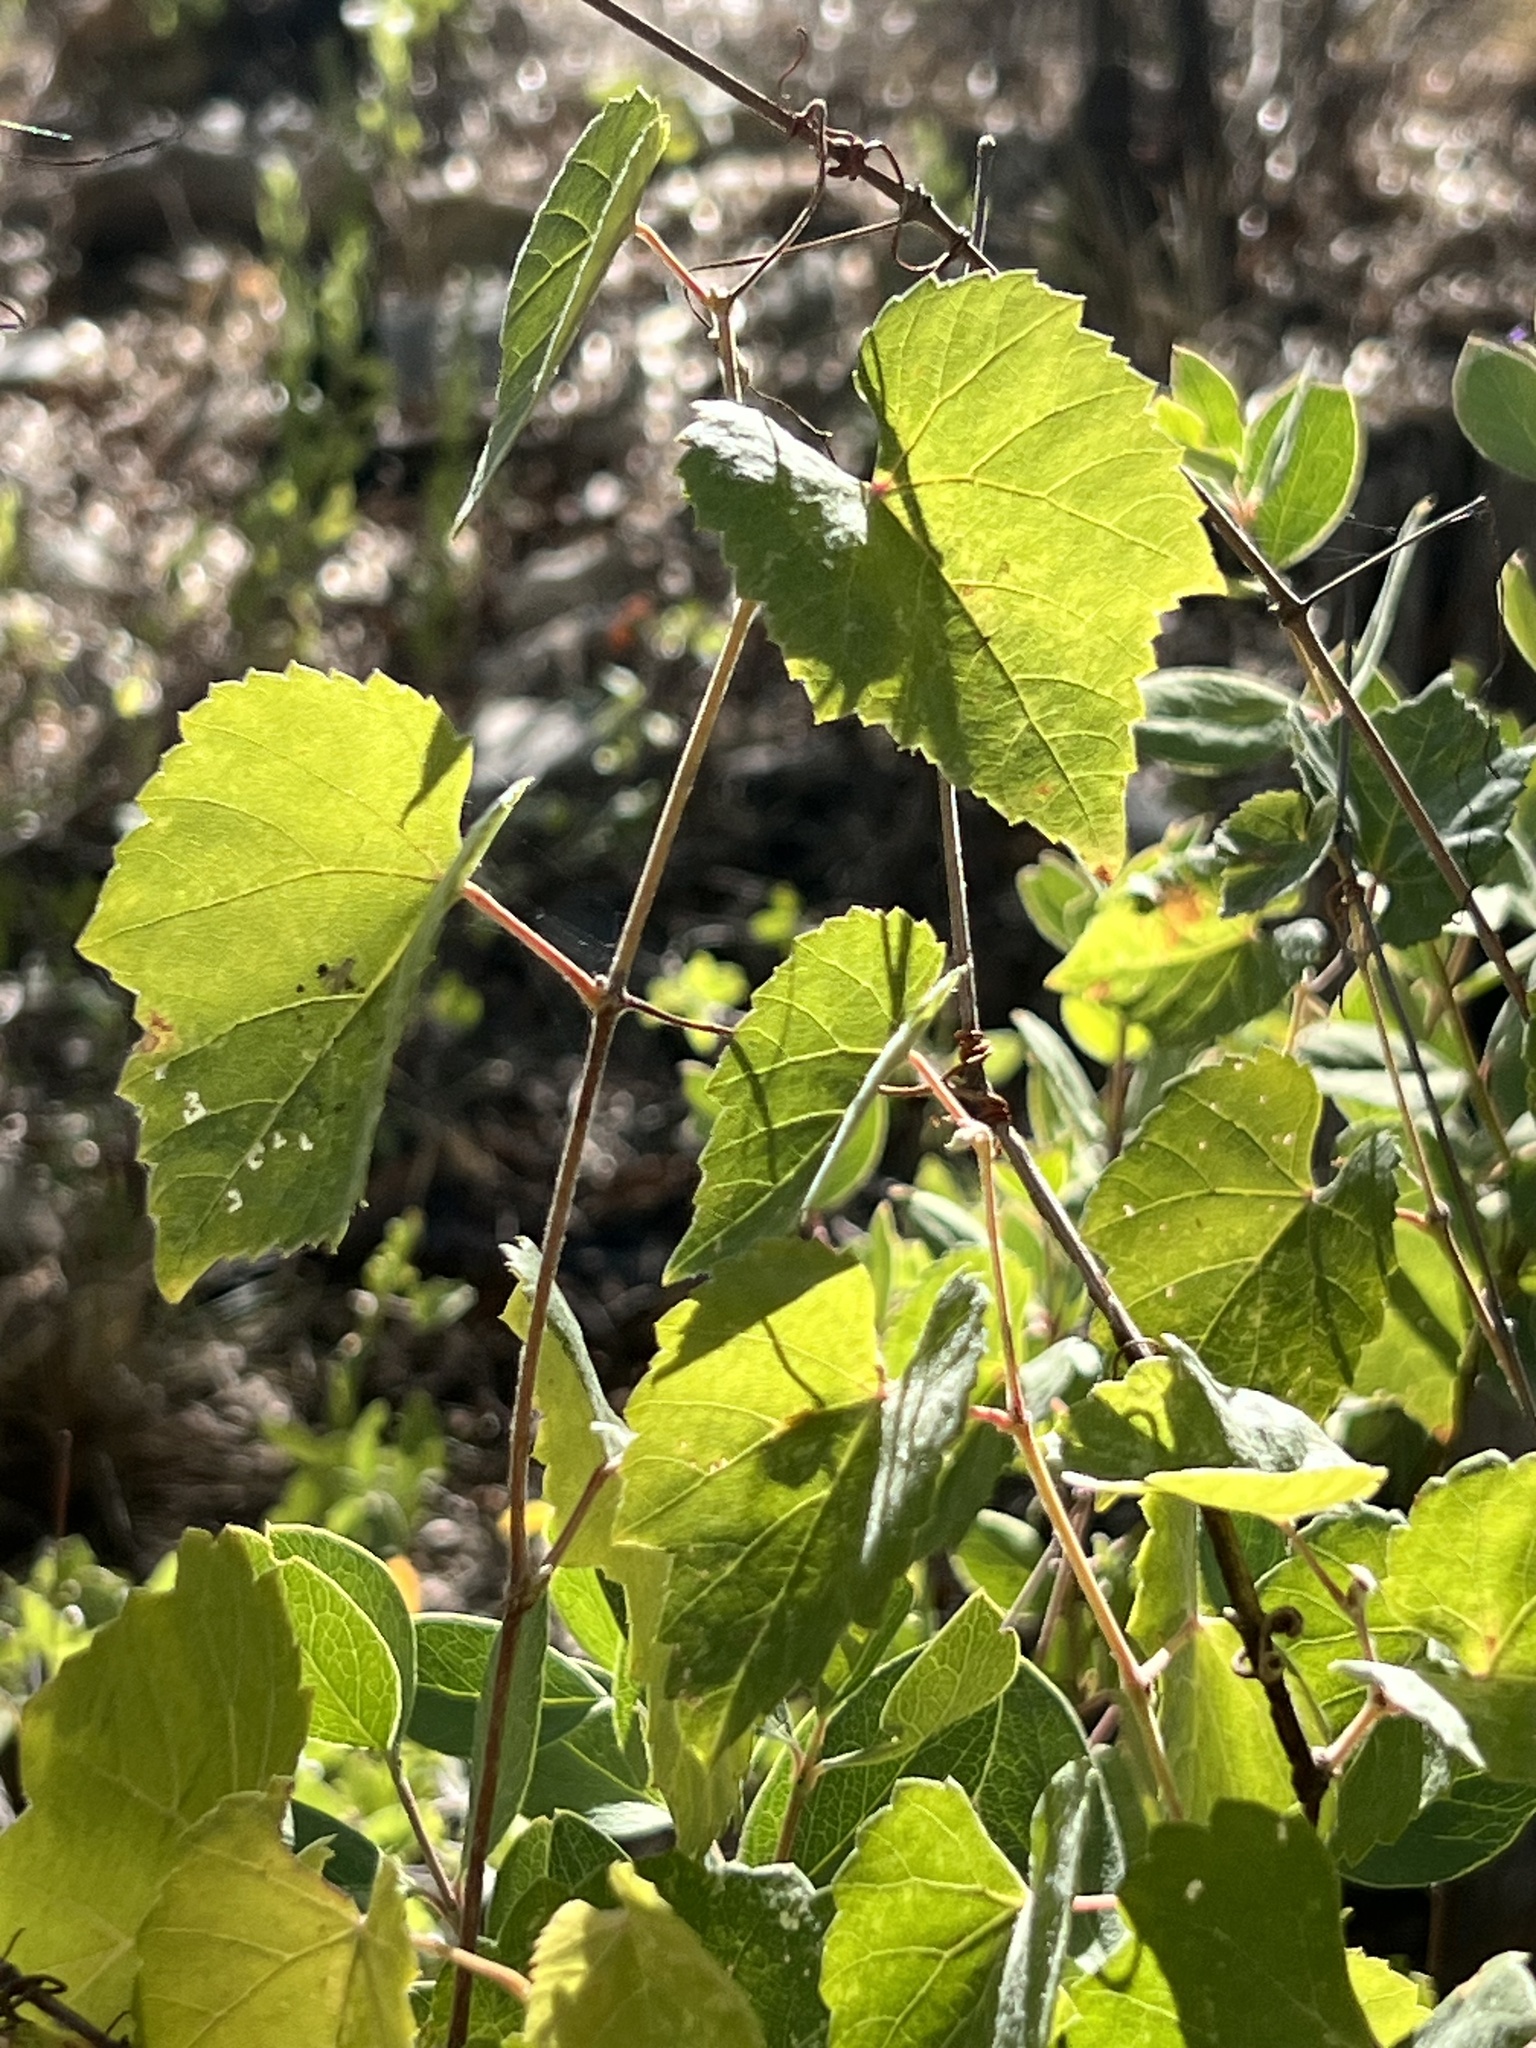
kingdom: Plantae
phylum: Tracheophyta
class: Magnoliopsida
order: Vitales
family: Vitaceae
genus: Vitis
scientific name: Vitis arizonica
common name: Canyon grape
